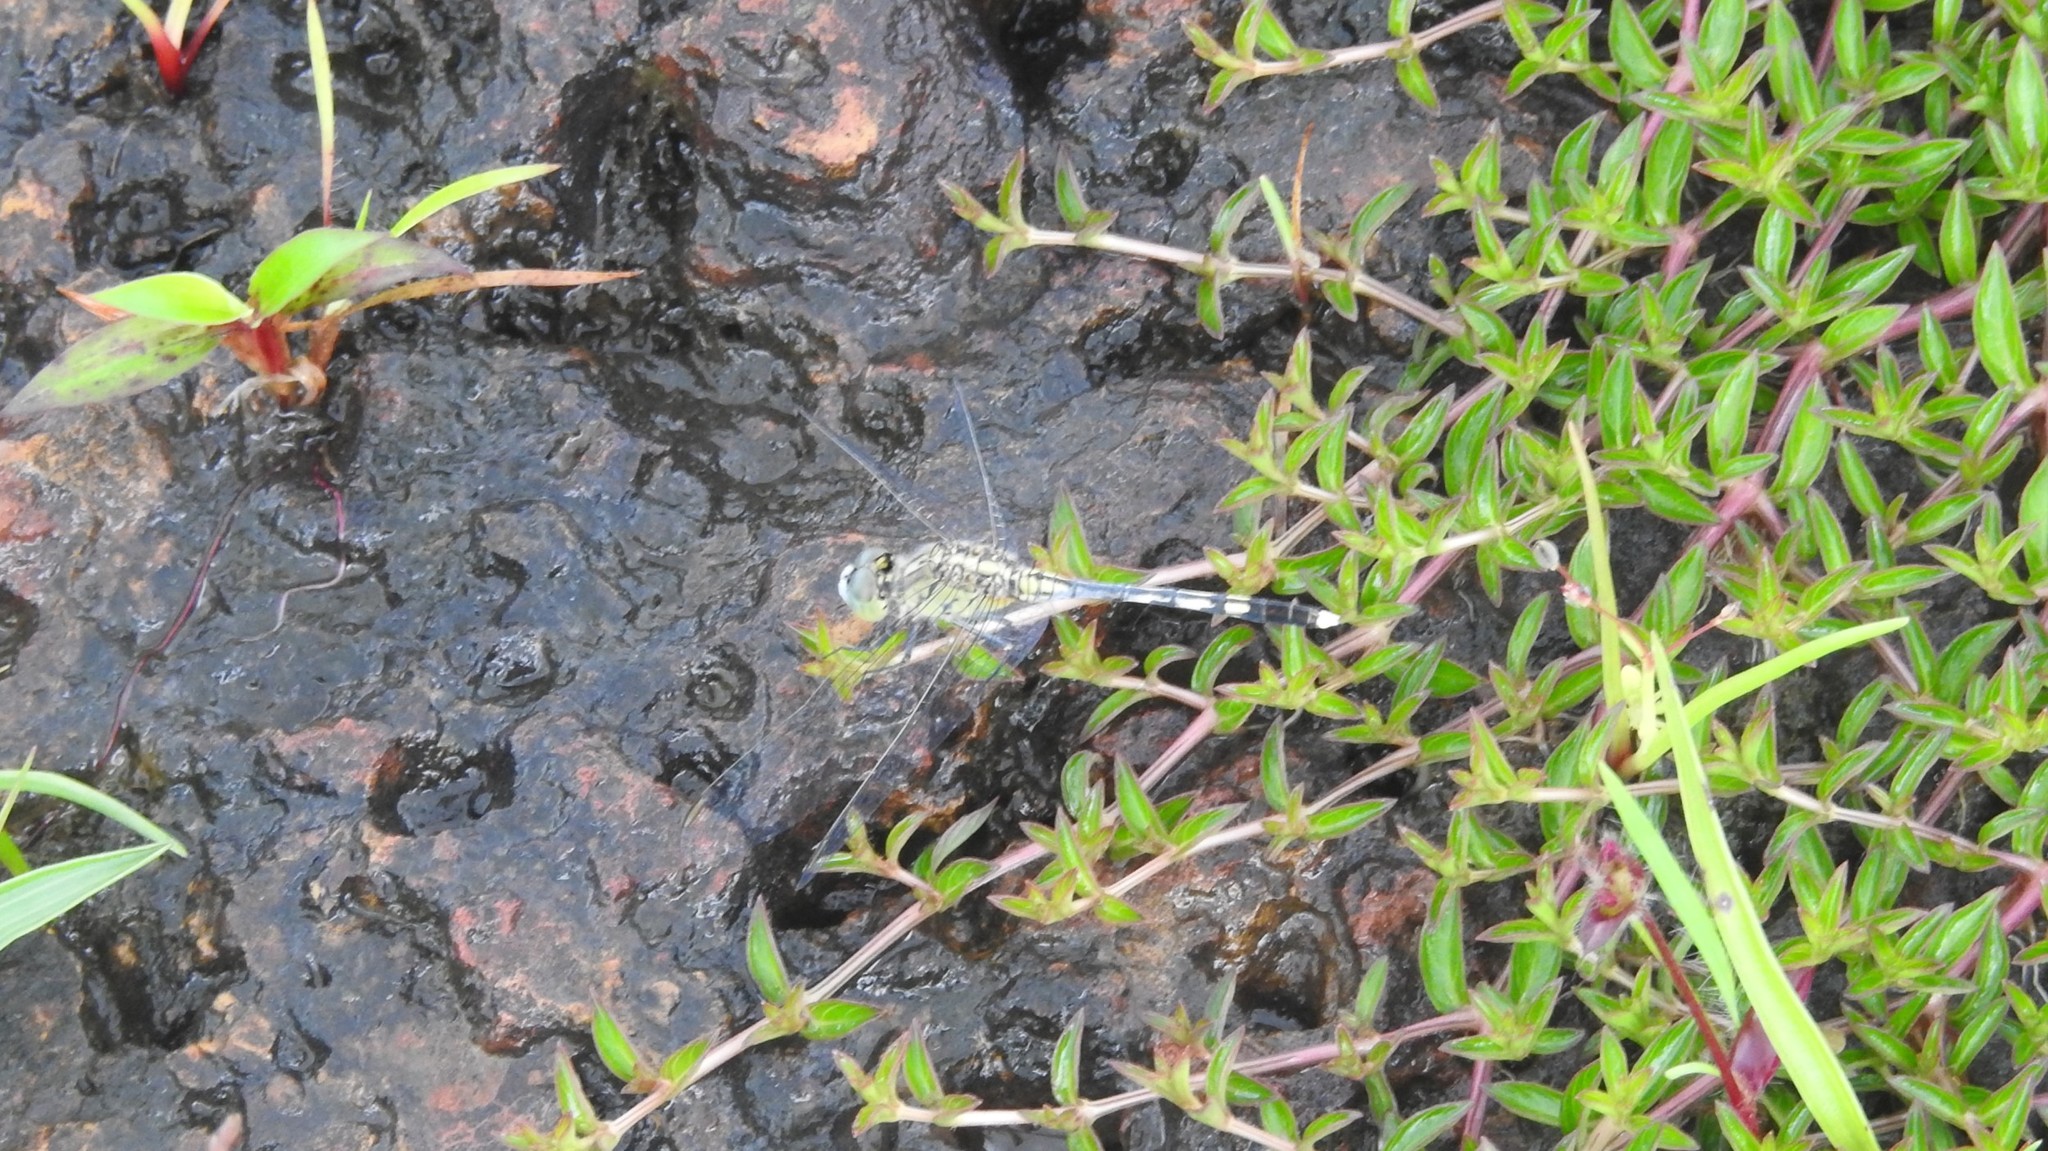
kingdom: Animalia
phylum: Arthropoda
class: Insecta
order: Odonata
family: Libellulidae
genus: Diplacodes
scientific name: Diplacodes trivialis
